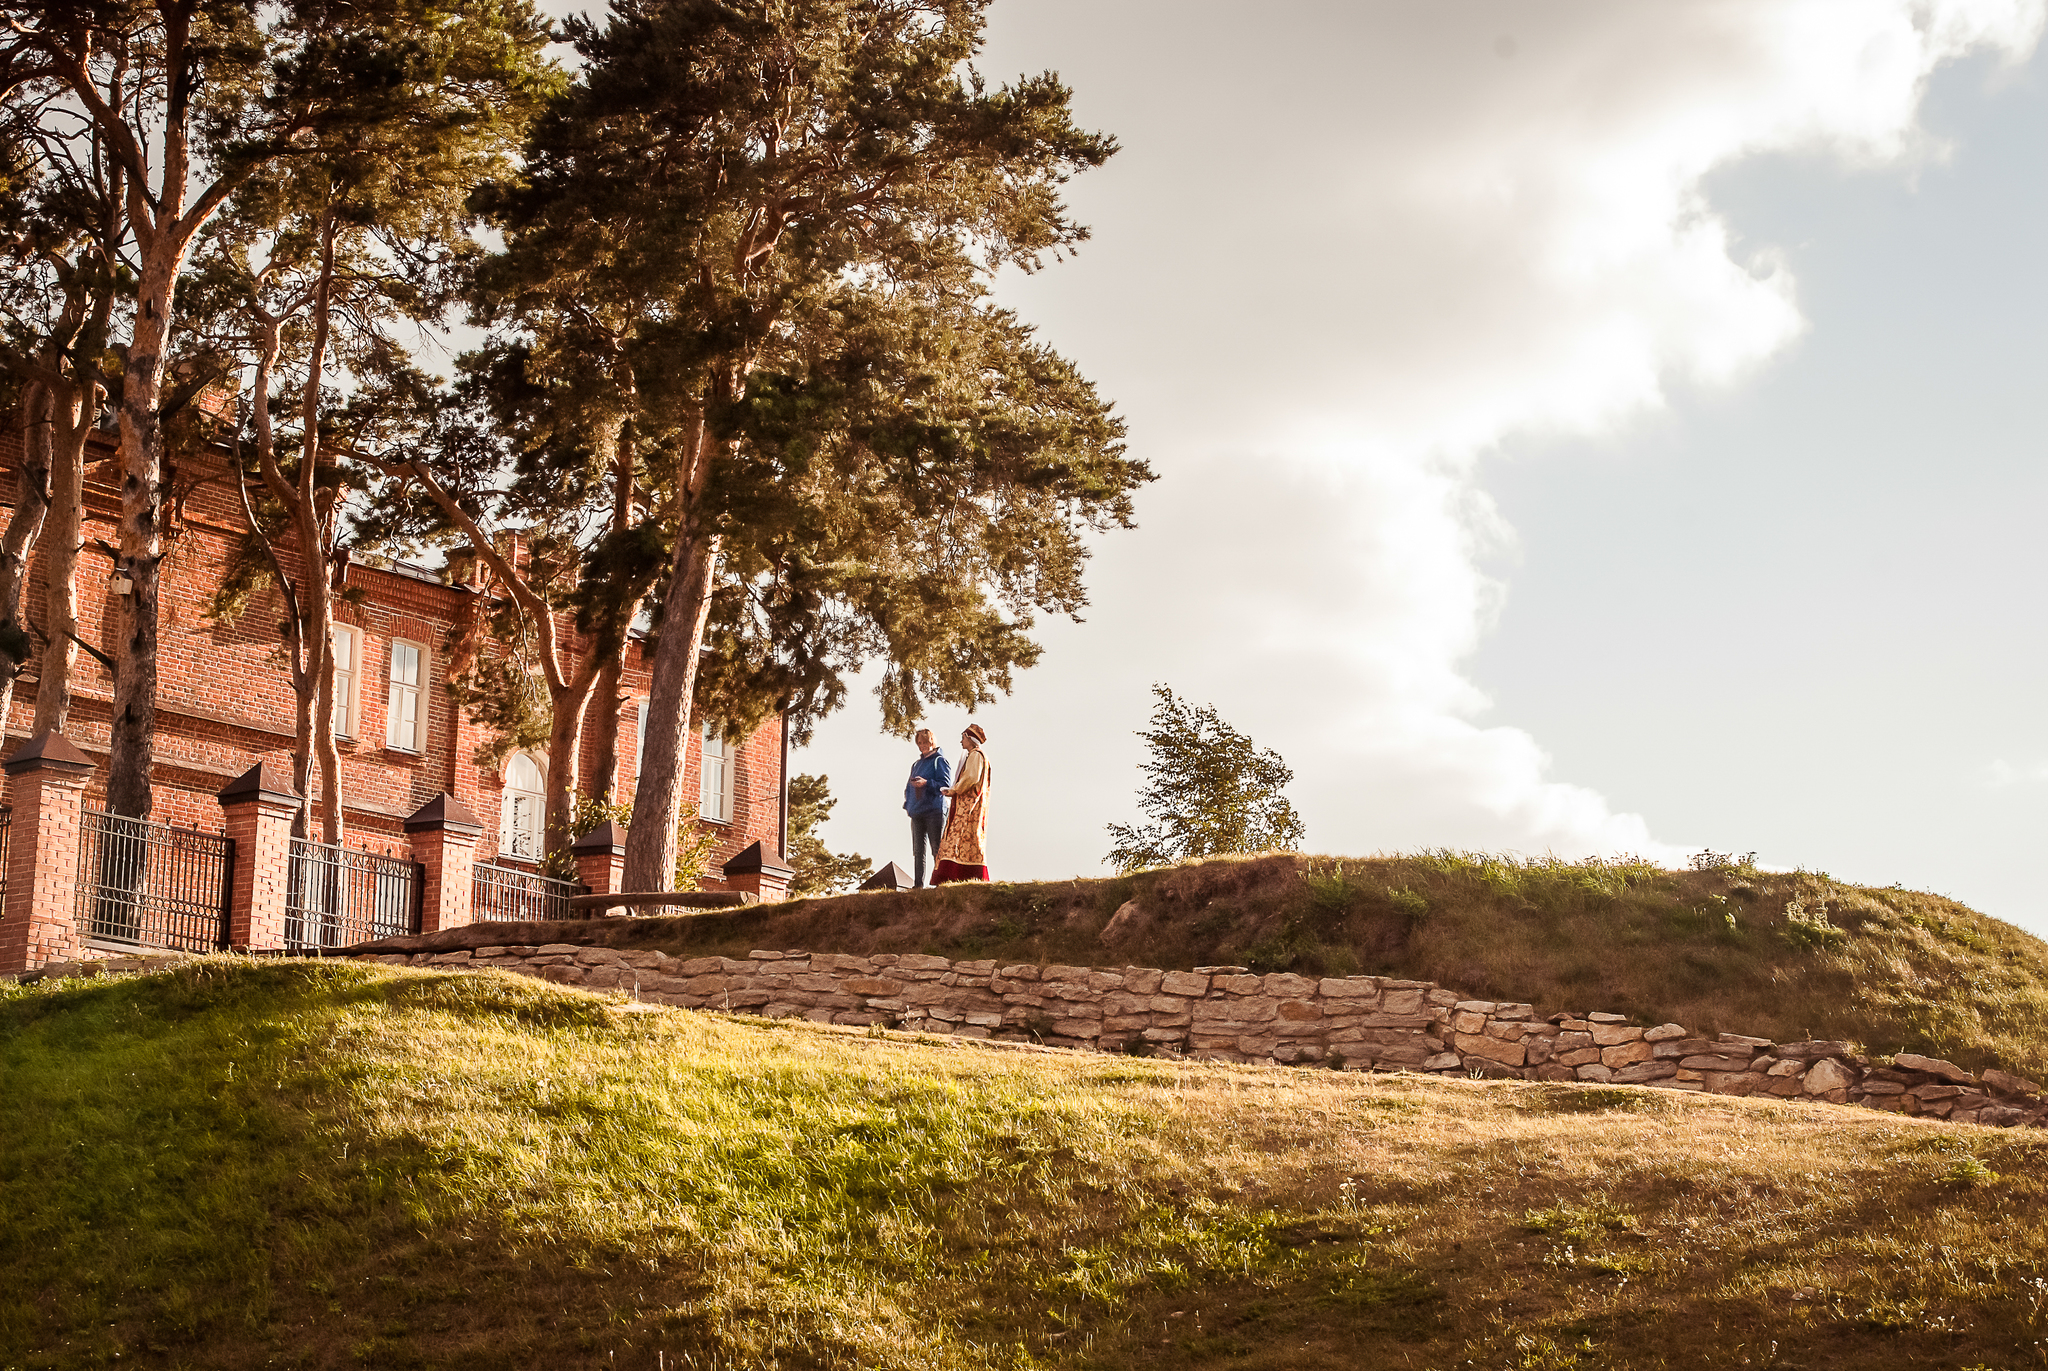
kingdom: Plantae
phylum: Tracheophyta
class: Pinopsida
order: Pinales
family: Pinaceae
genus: Pinus
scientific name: Pinus sylvestris
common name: Scots pine
